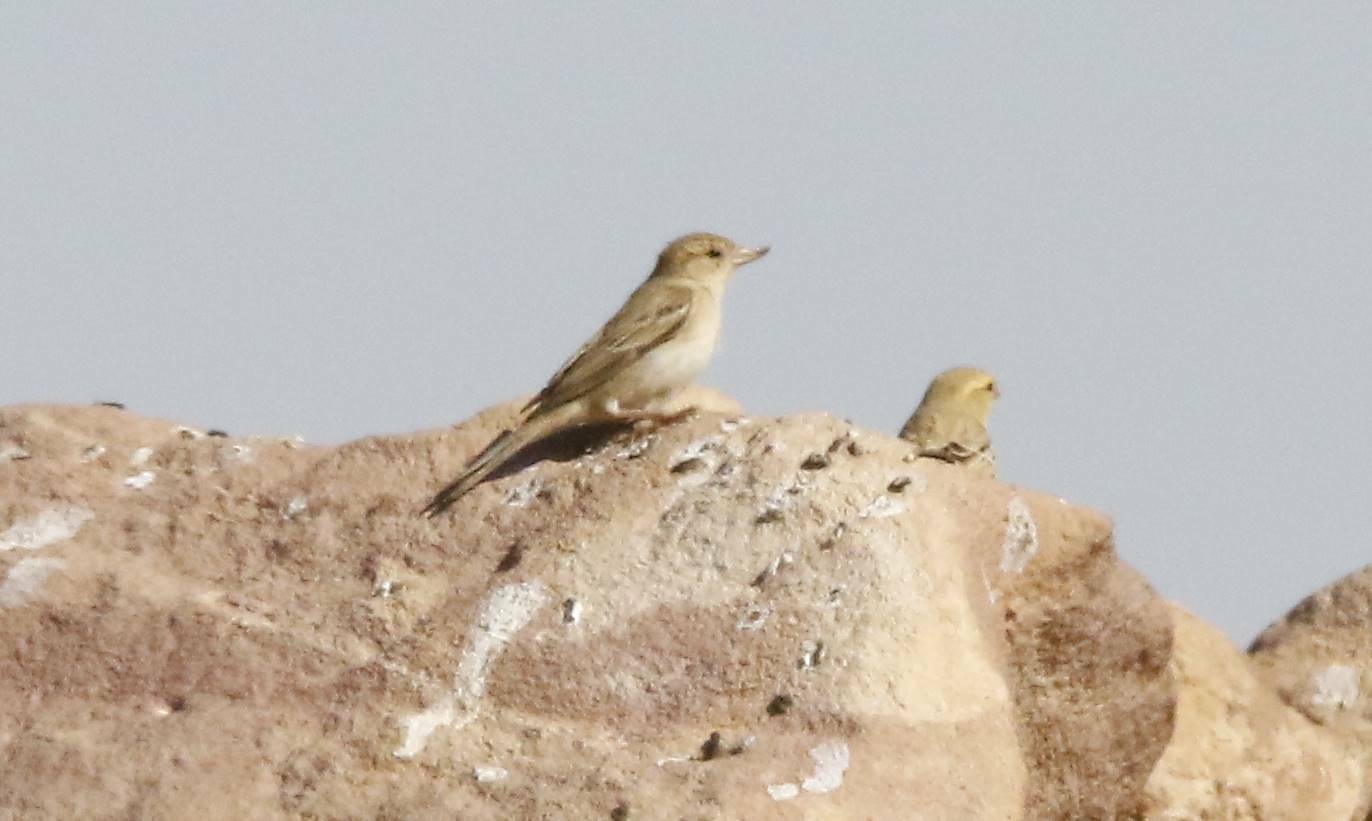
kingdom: Animalia
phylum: Chordata
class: Aves
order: Passeriformes
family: Passeridae
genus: Passer
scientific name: Passer luteus
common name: Sudan golden sparrow
